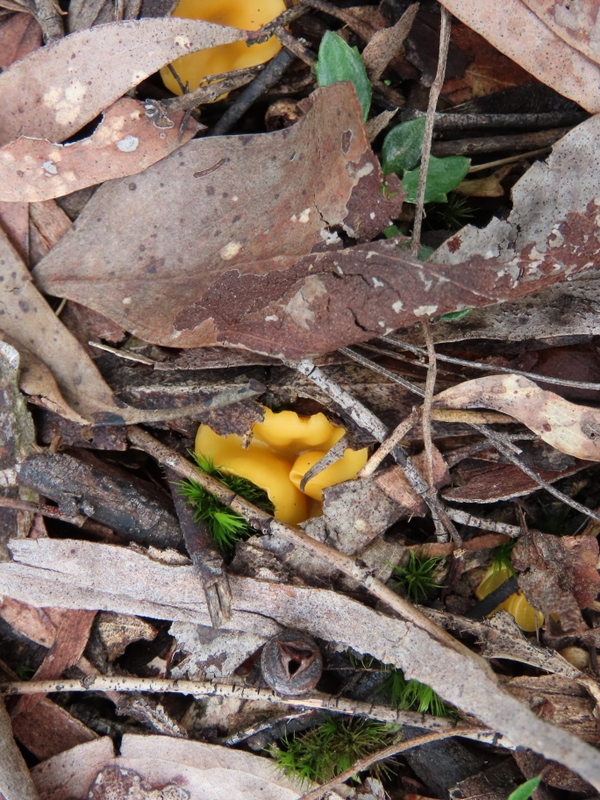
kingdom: Fungi
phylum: Ascomycota
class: Leotiomycetes
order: Helotiales
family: Helotiaceae
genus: Phaeohelotium
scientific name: Phaeohelotium baileyanum
